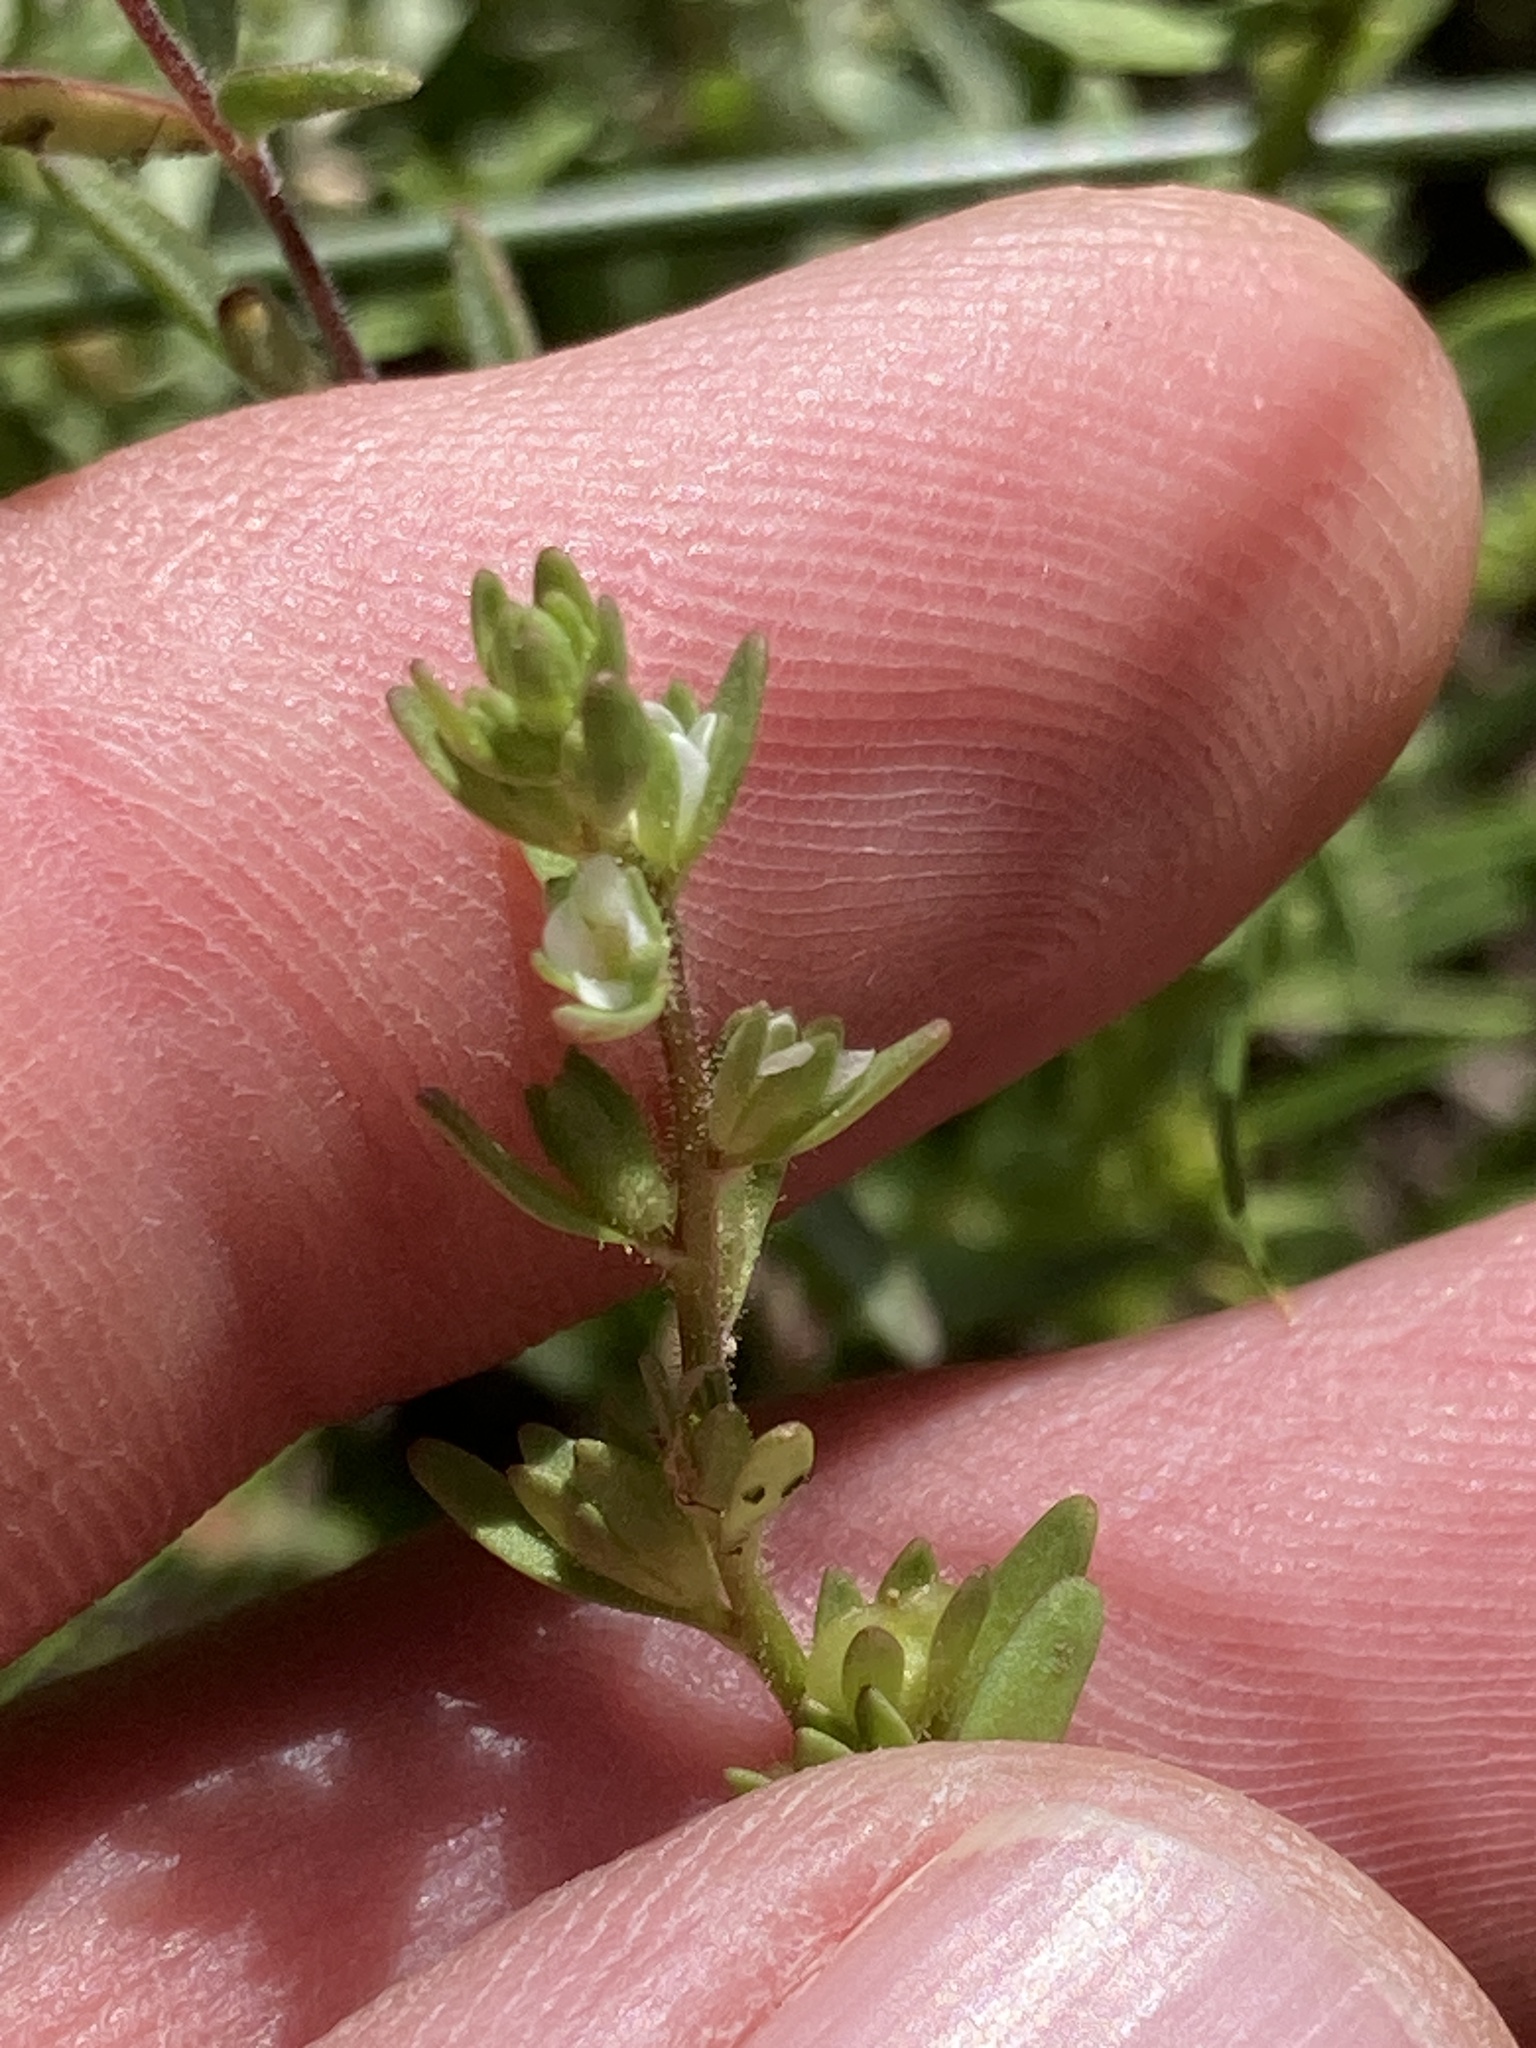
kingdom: Plantae
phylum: Tracheophyta
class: Magnoliopsida
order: Lamiales
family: Plantaginaceae
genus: Veronica
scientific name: Veronica peregrina
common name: Neckweed
